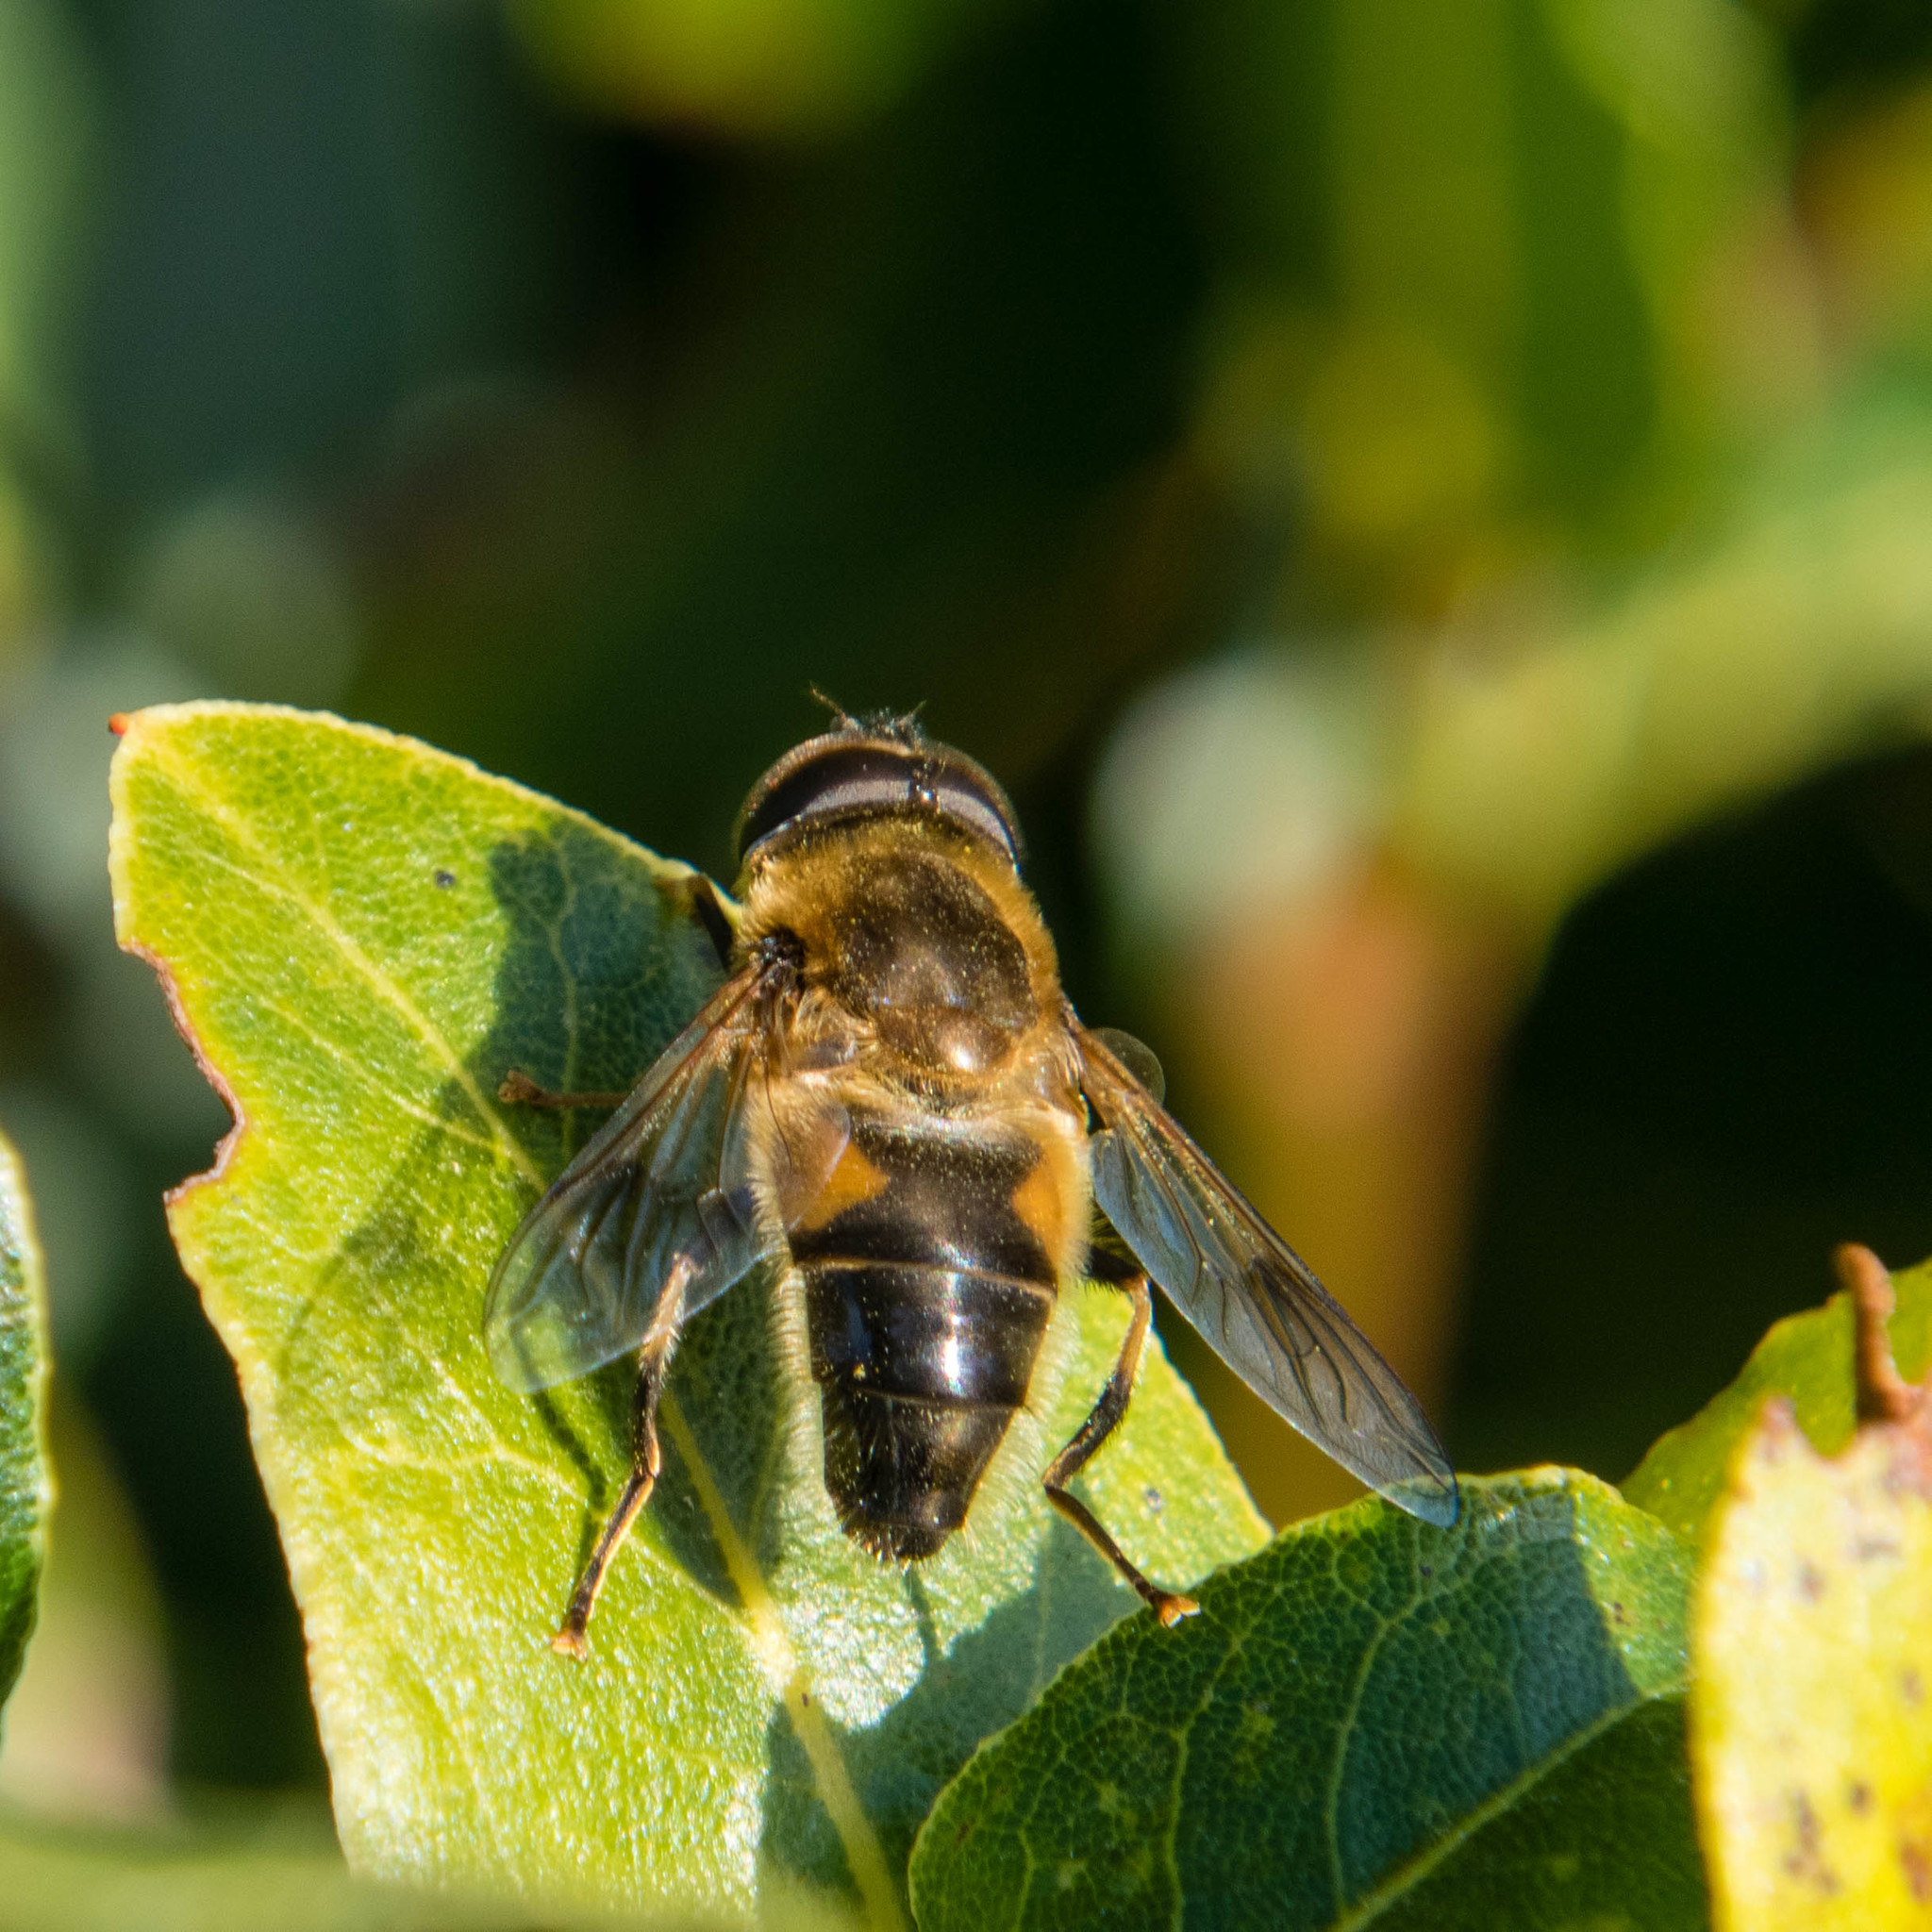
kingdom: Animalia
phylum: Arthropoda
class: Insecta
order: Diptera
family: Syrphidae
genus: Eristalis
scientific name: Eristalis pertinax
